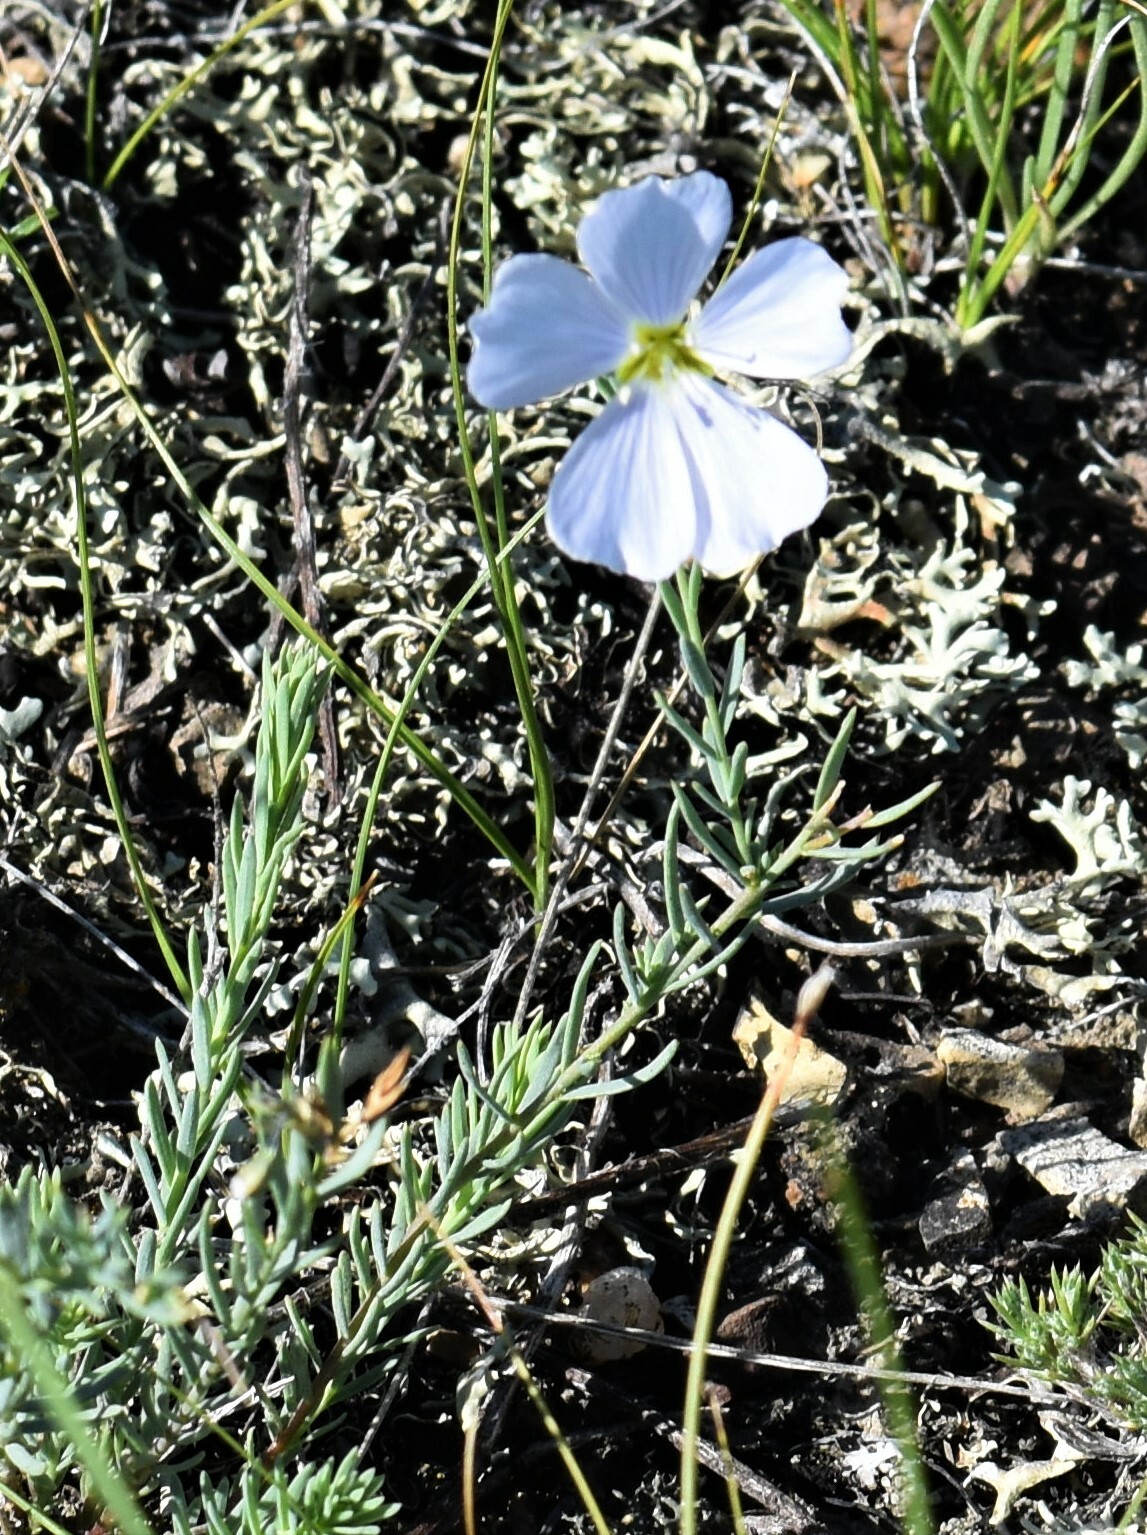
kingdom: Plantae
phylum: Tracheophyta
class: Magnoliopsida
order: Malpighiales
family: Linaceae
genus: Linum
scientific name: Linum lewisii
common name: Prairie flax
